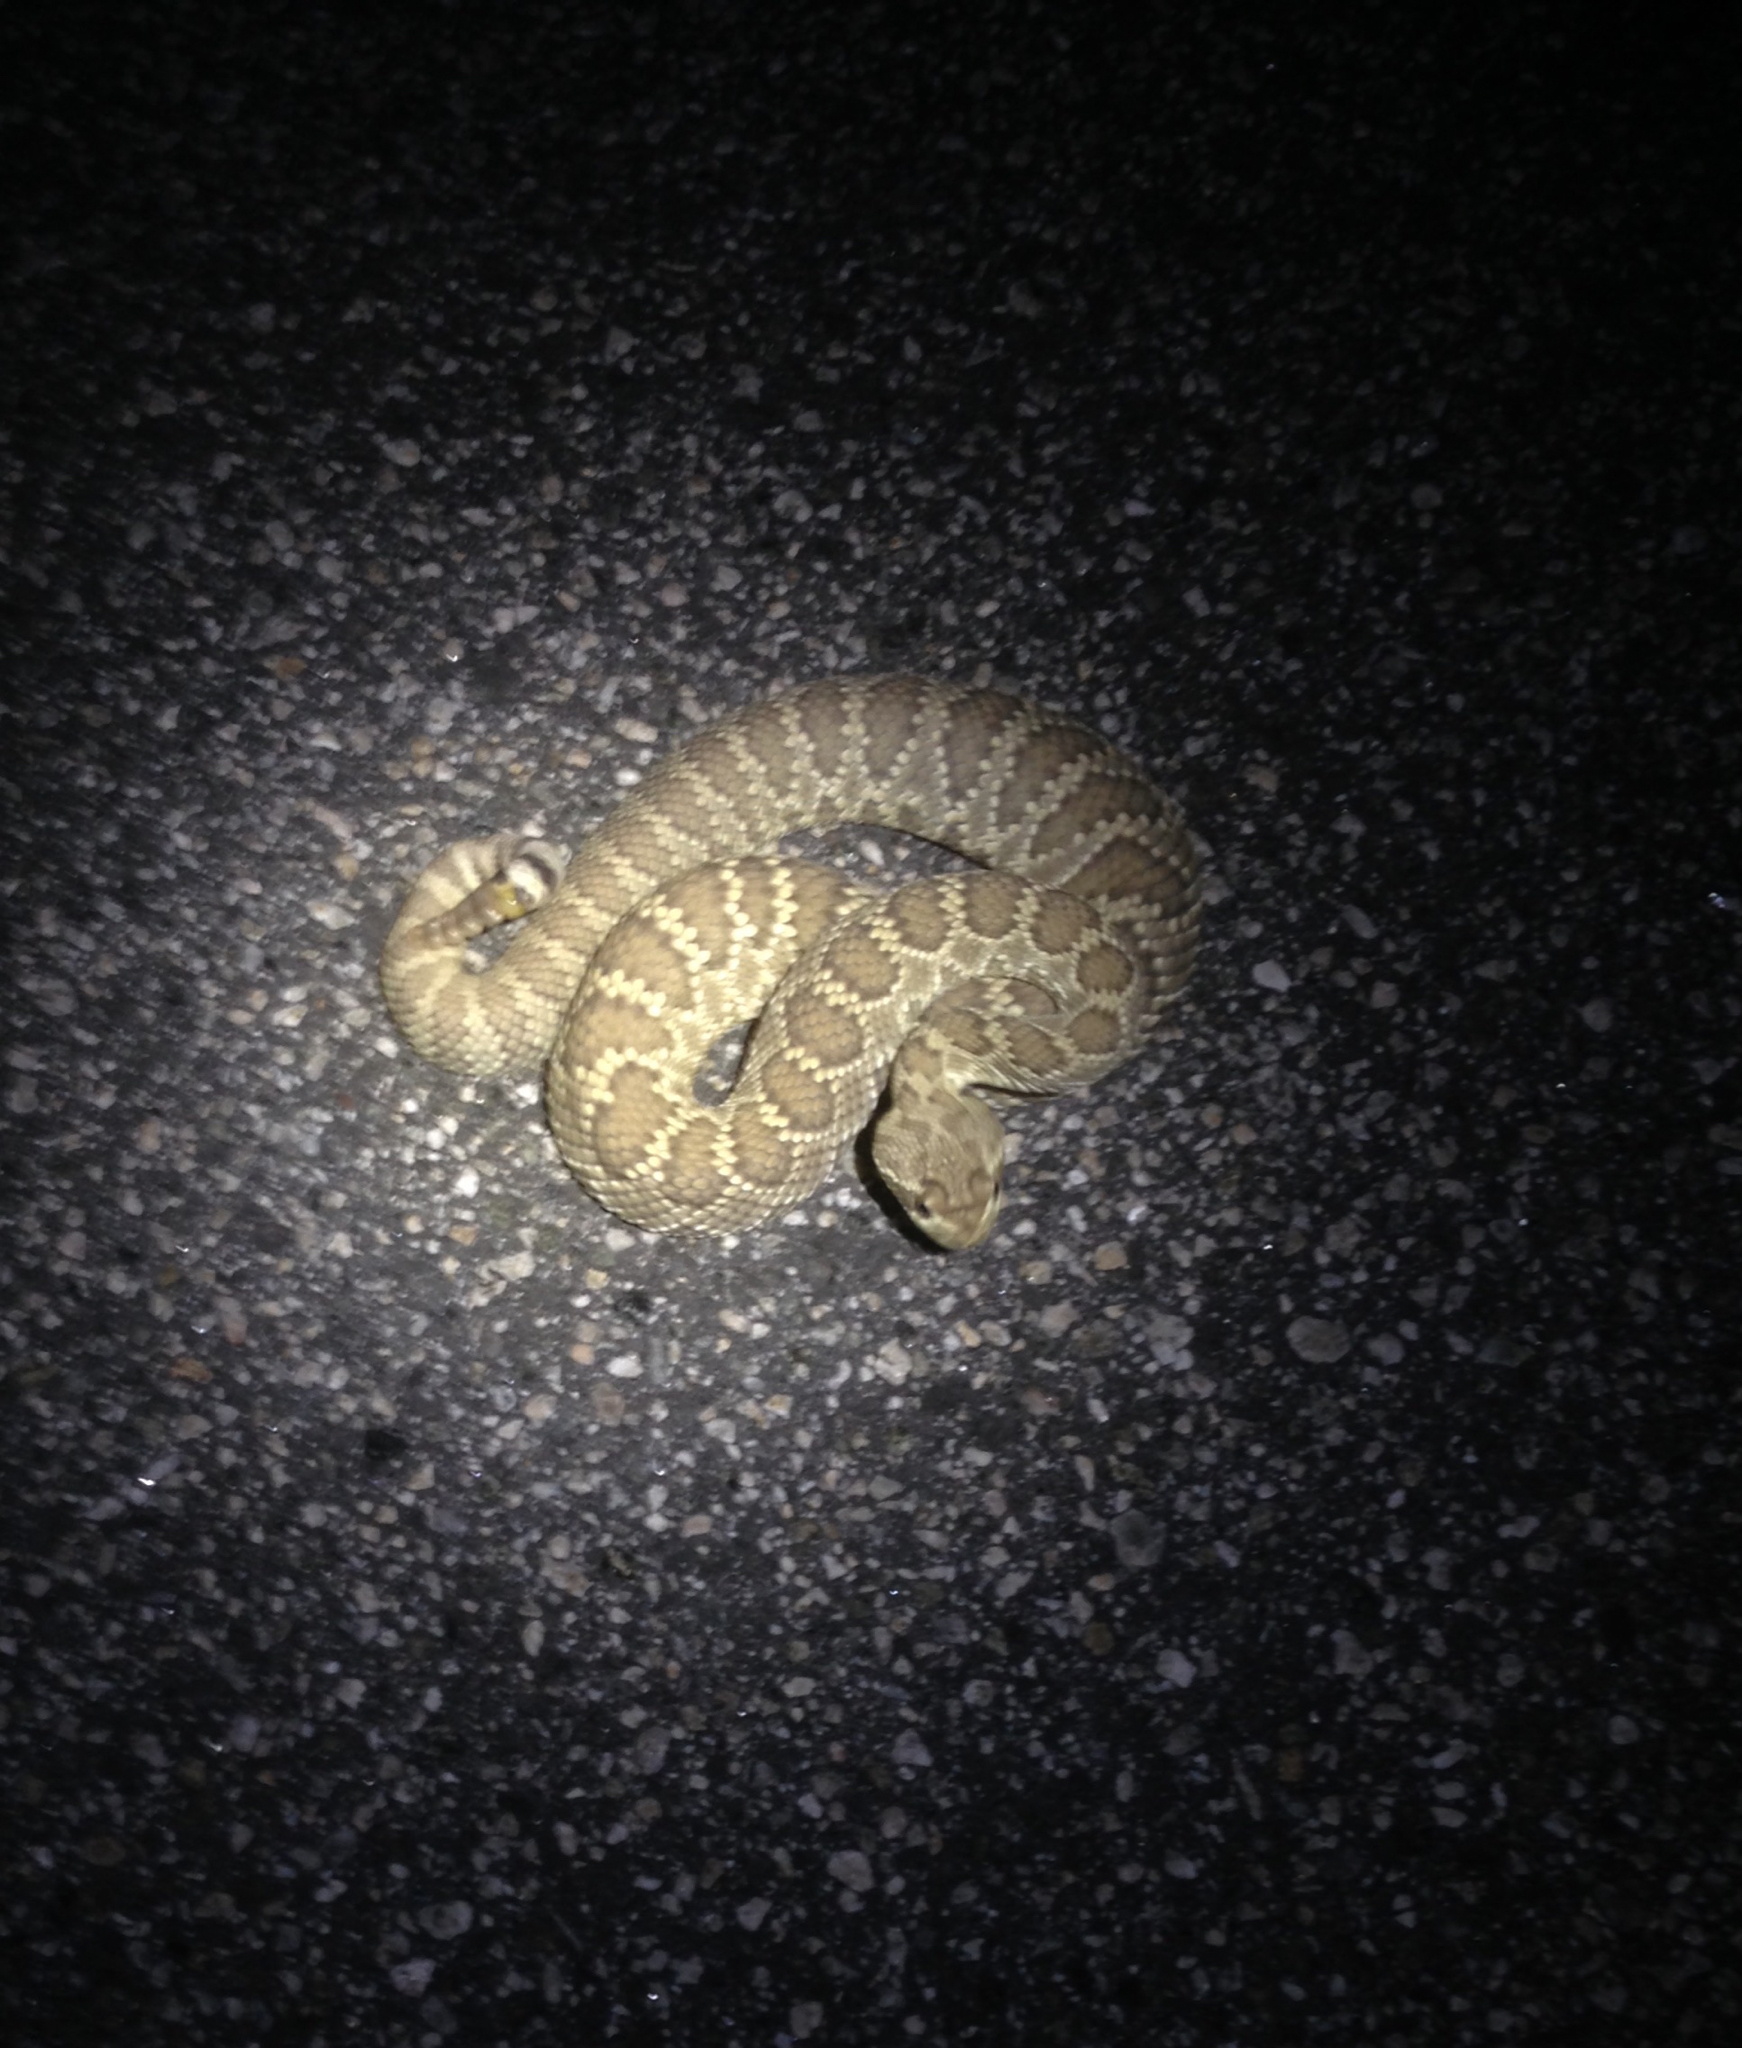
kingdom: Animalia
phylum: Chordata
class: Squamata
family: Viperidae
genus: Crotalus
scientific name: Crotalus scutulatus
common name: Scutulatus
